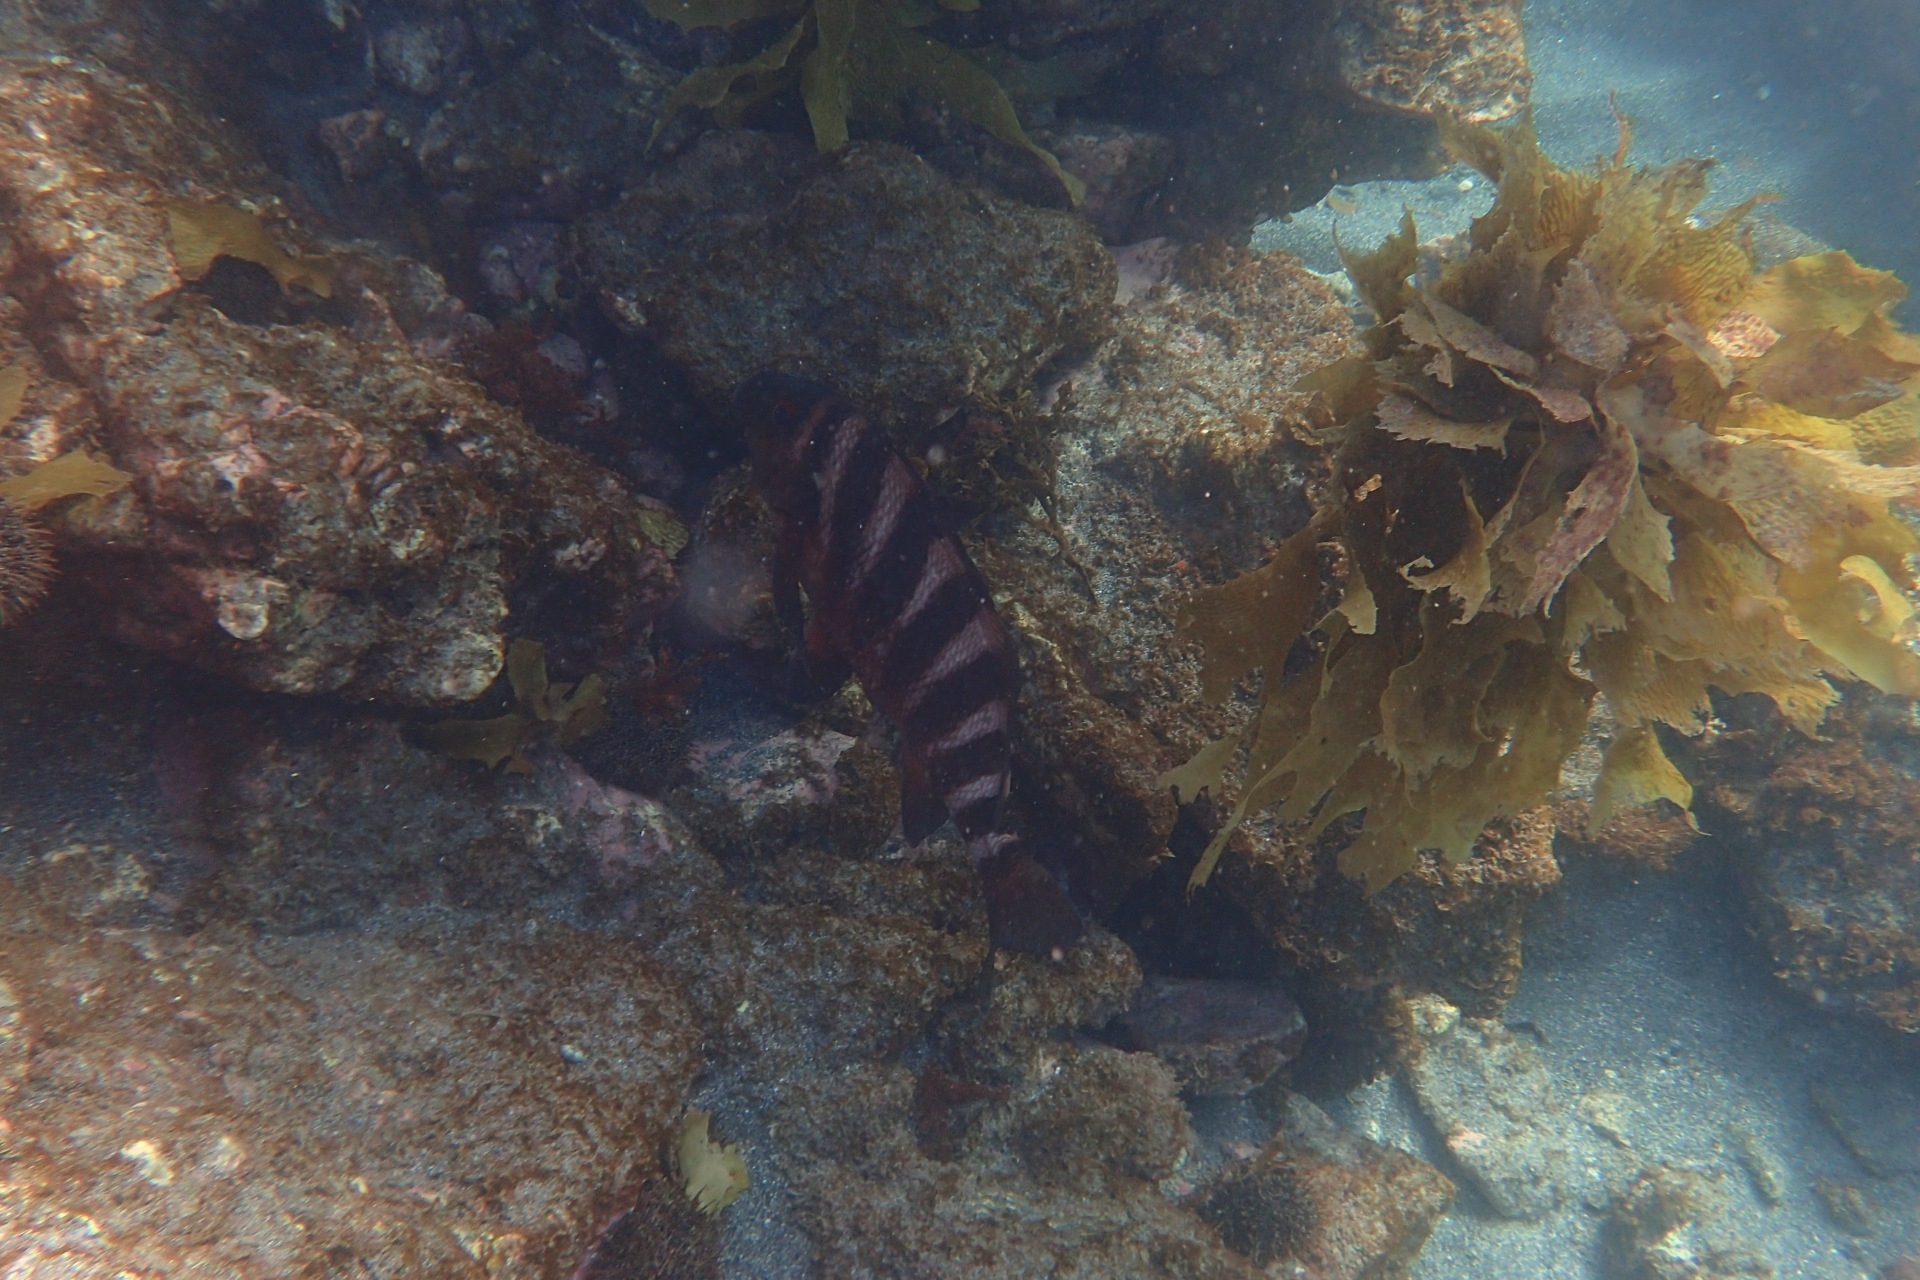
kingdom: Animalia
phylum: Chordata
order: Perciformes
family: Cheilodactylidae
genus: Cheilodactylus
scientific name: Cheilodactylus spectabilis
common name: Red moki
